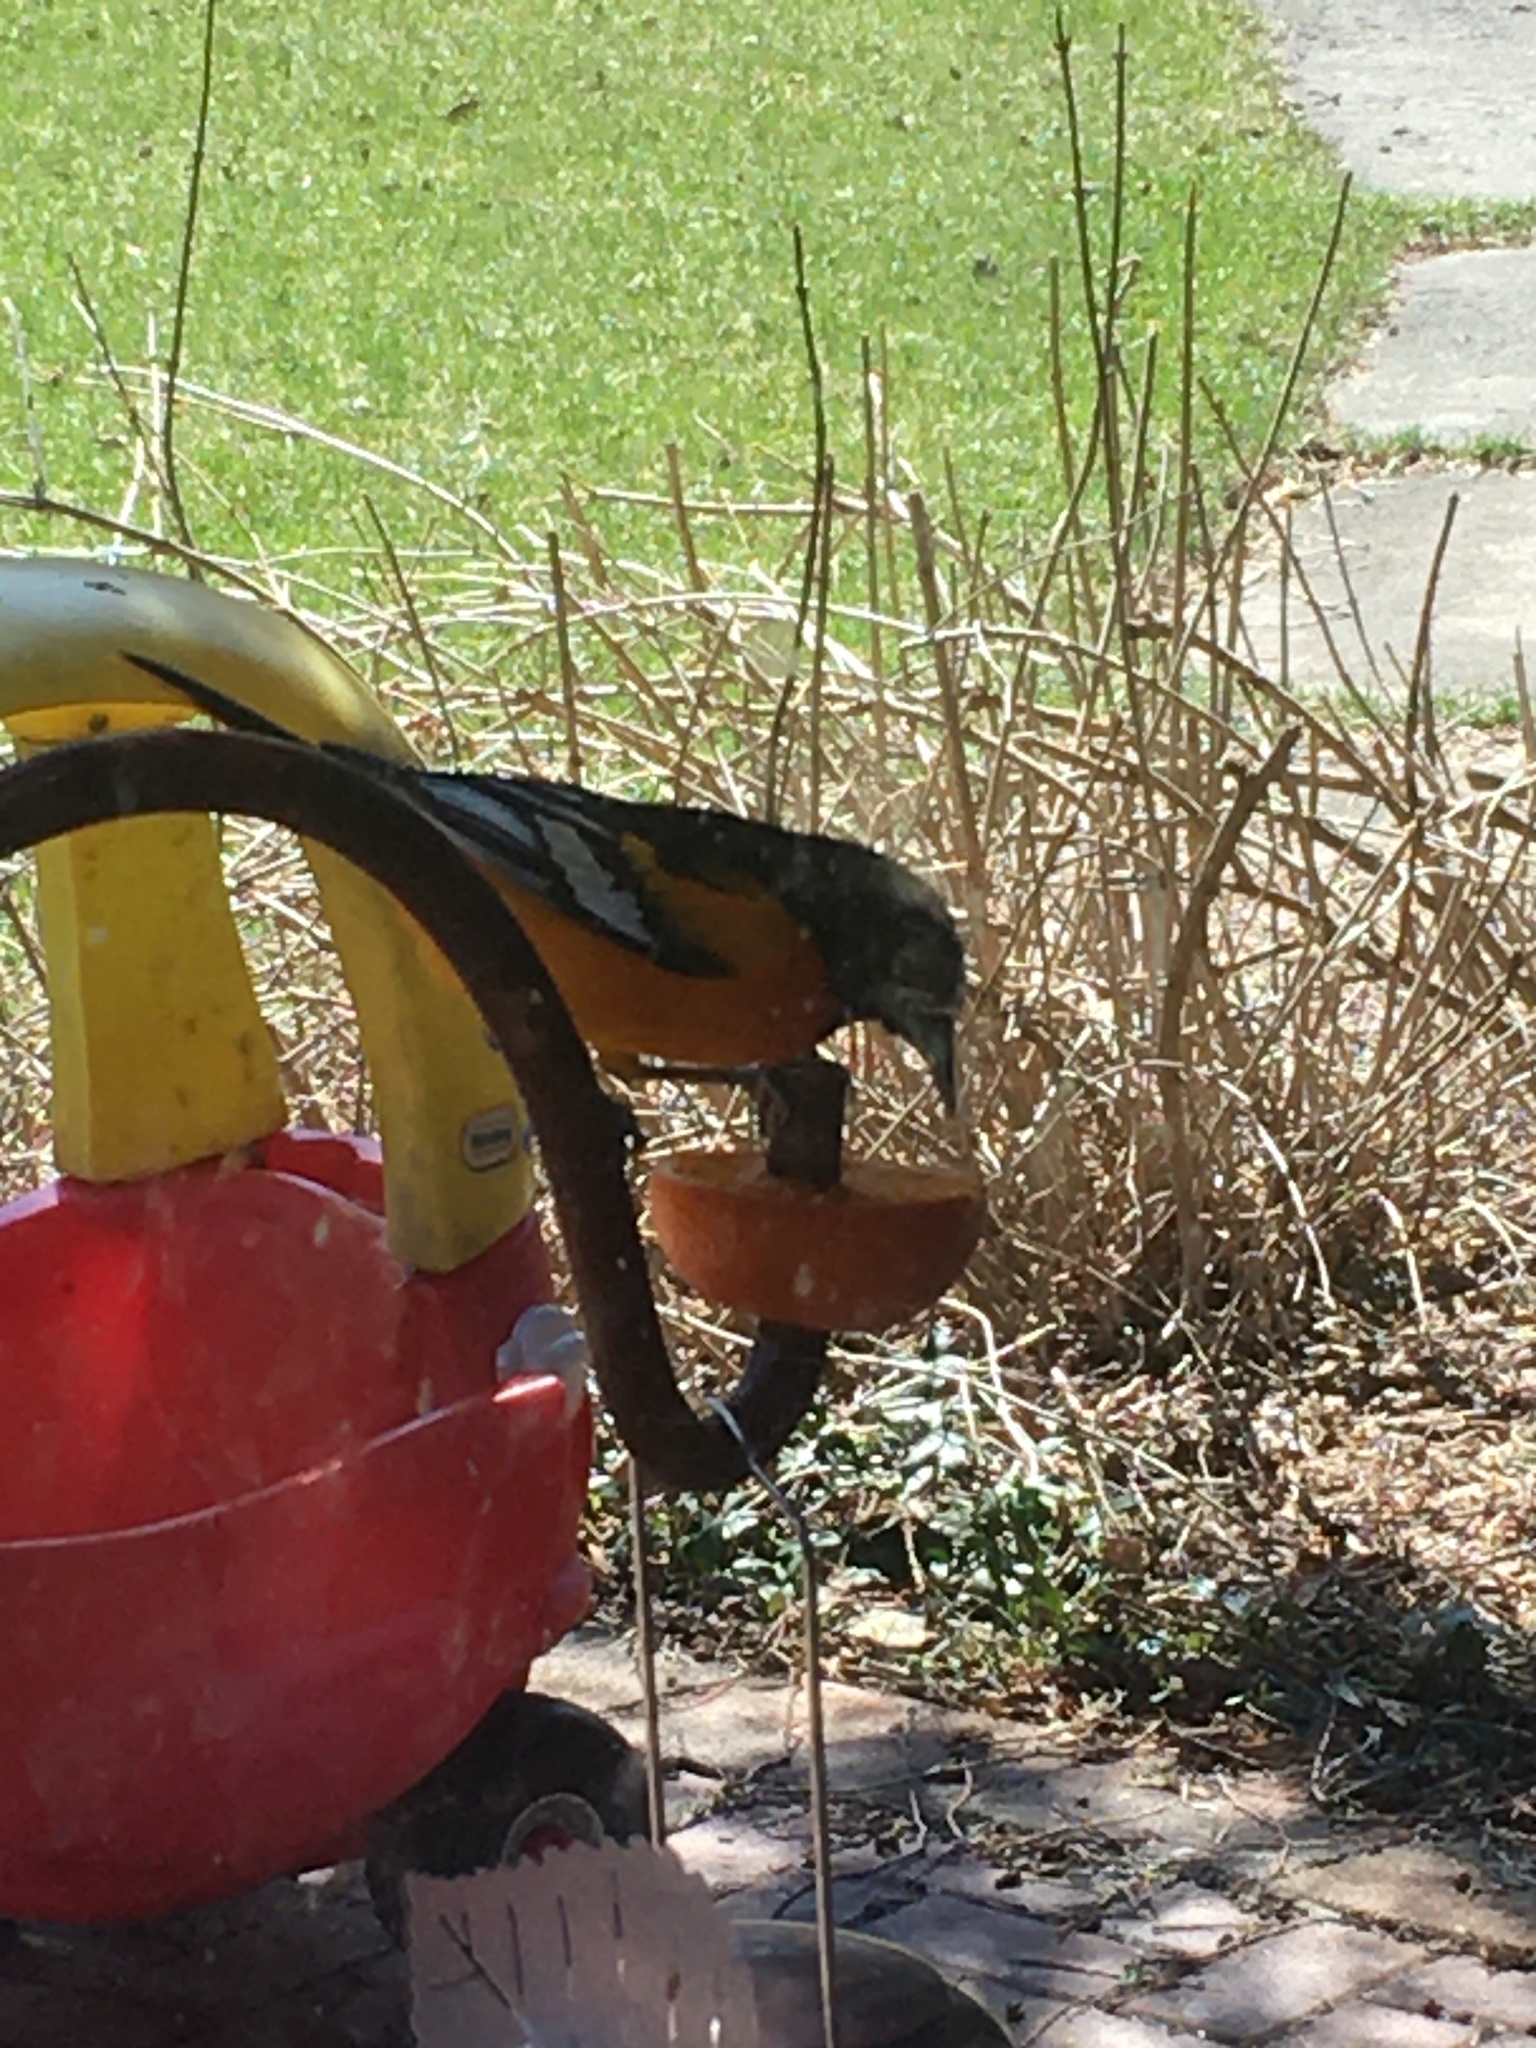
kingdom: Animalia
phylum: Chordata
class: Aves
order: Passeriformes
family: Icteridae
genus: Icterus
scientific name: Icterus galbula
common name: Baltimore oriole
